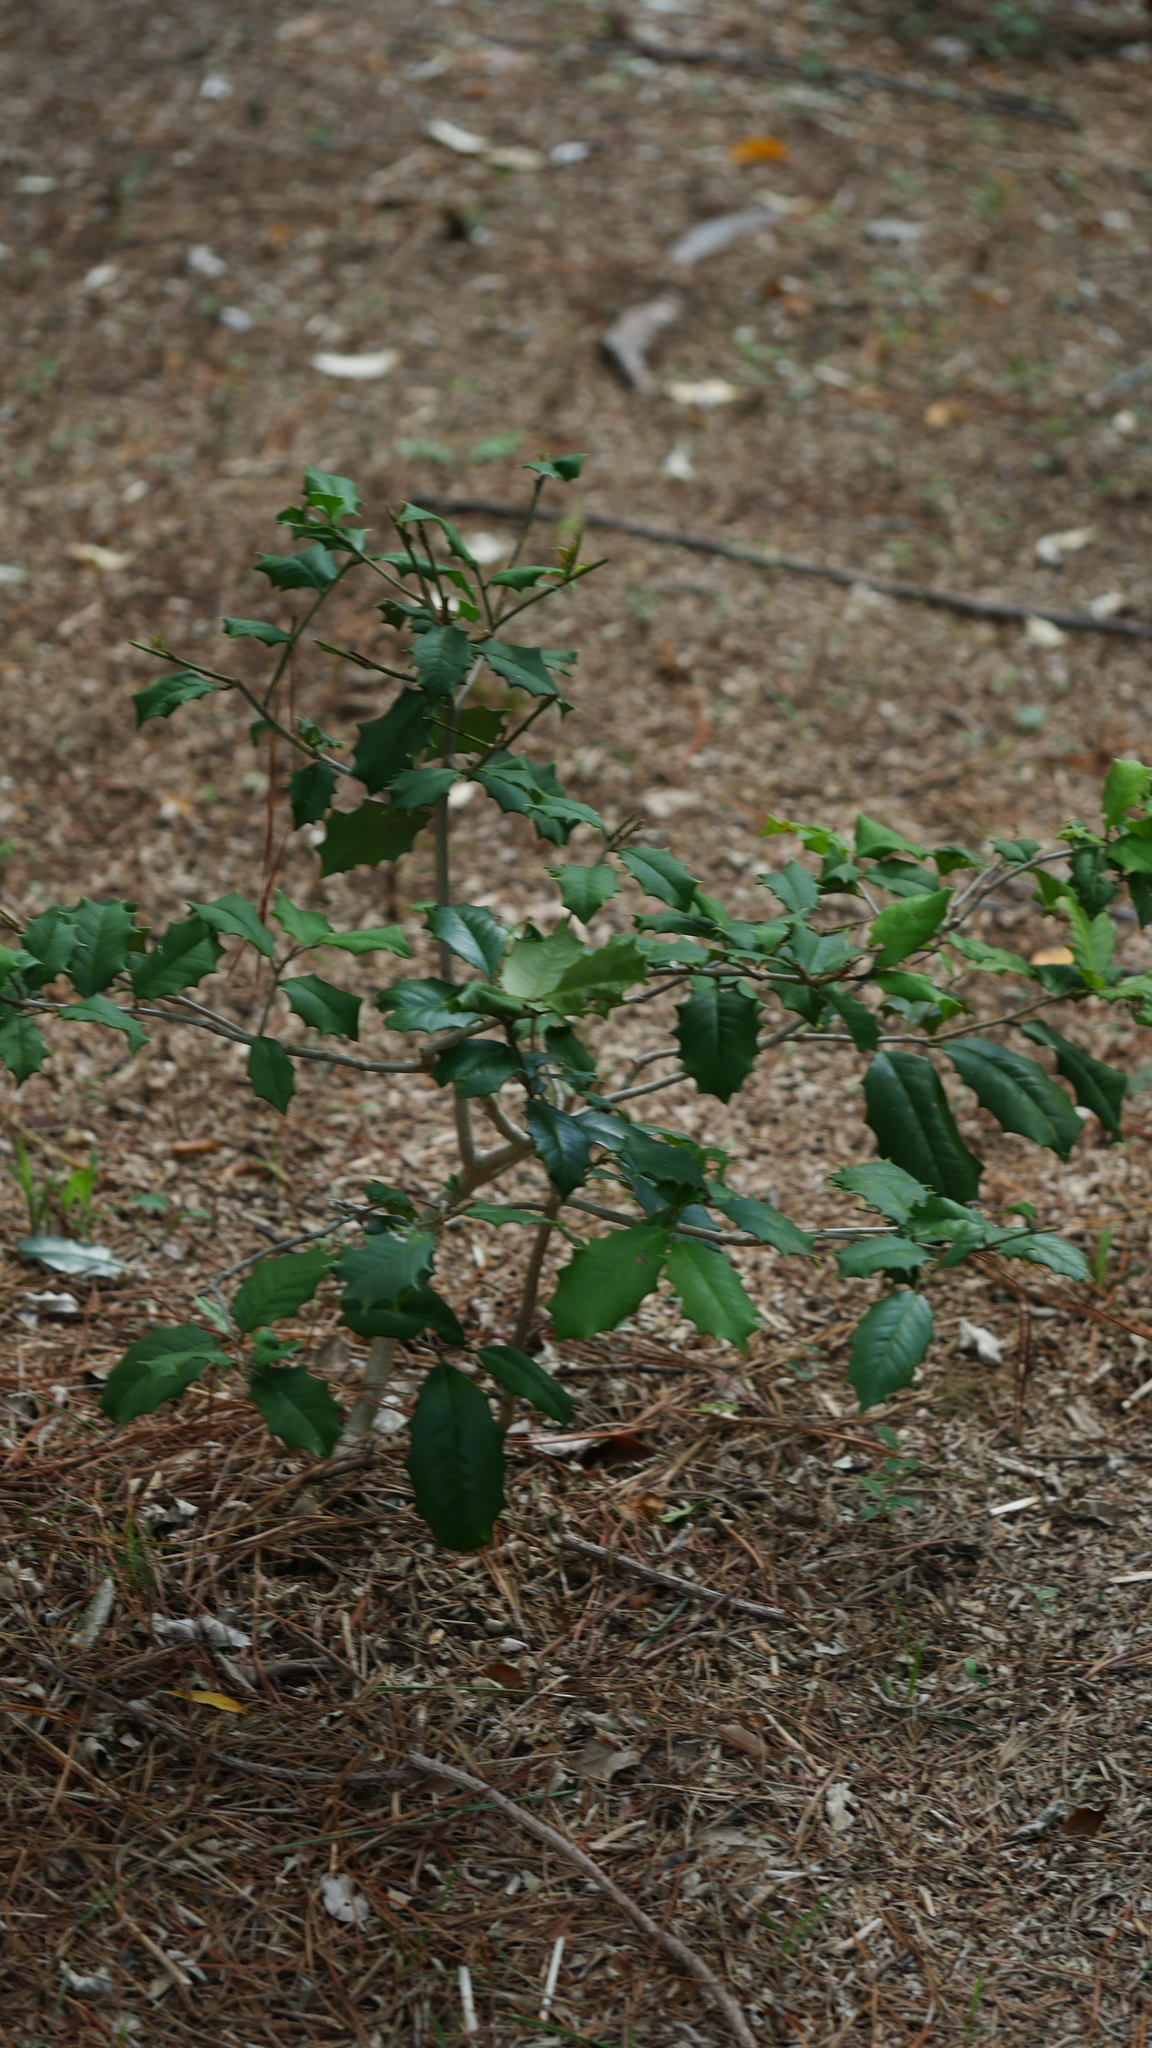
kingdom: Plantae
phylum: Tracheophyta
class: Magnoliopsida
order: Aquifoliales
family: Aquifoliaceae
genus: Ilex
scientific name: Ilex opaca
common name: American holly
